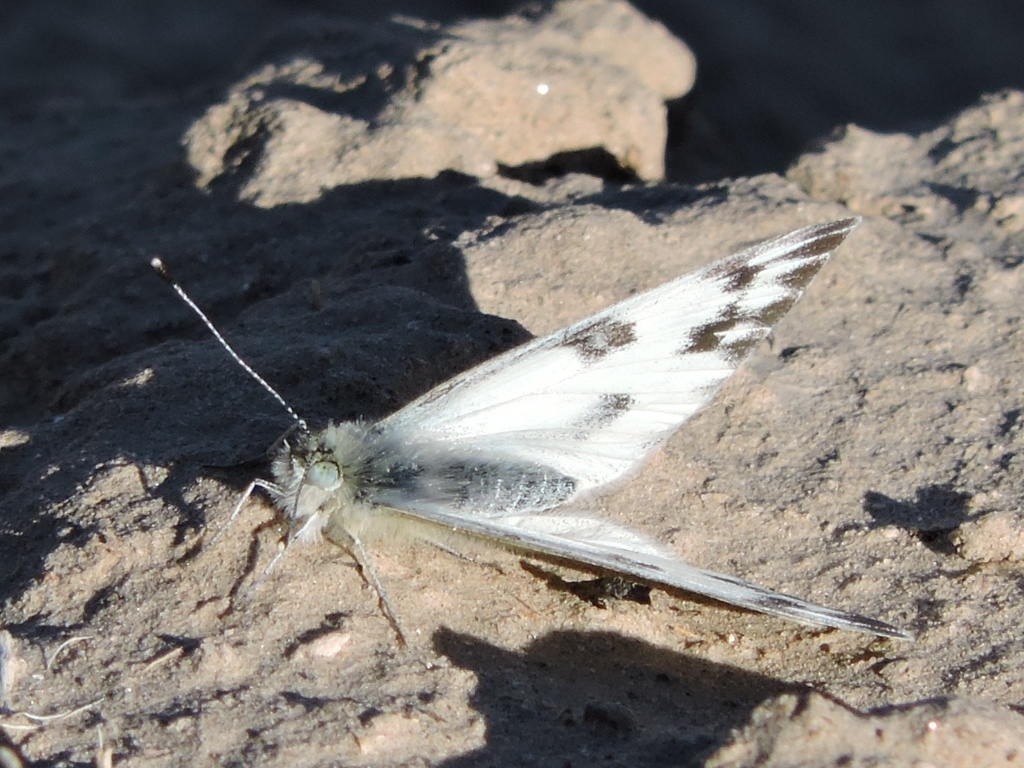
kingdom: Animalia
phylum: Arthropoda
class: Insecta
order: Lepidoptera
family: Pieridae
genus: Pontia
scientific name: Pontia protodice
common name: Checkered white
